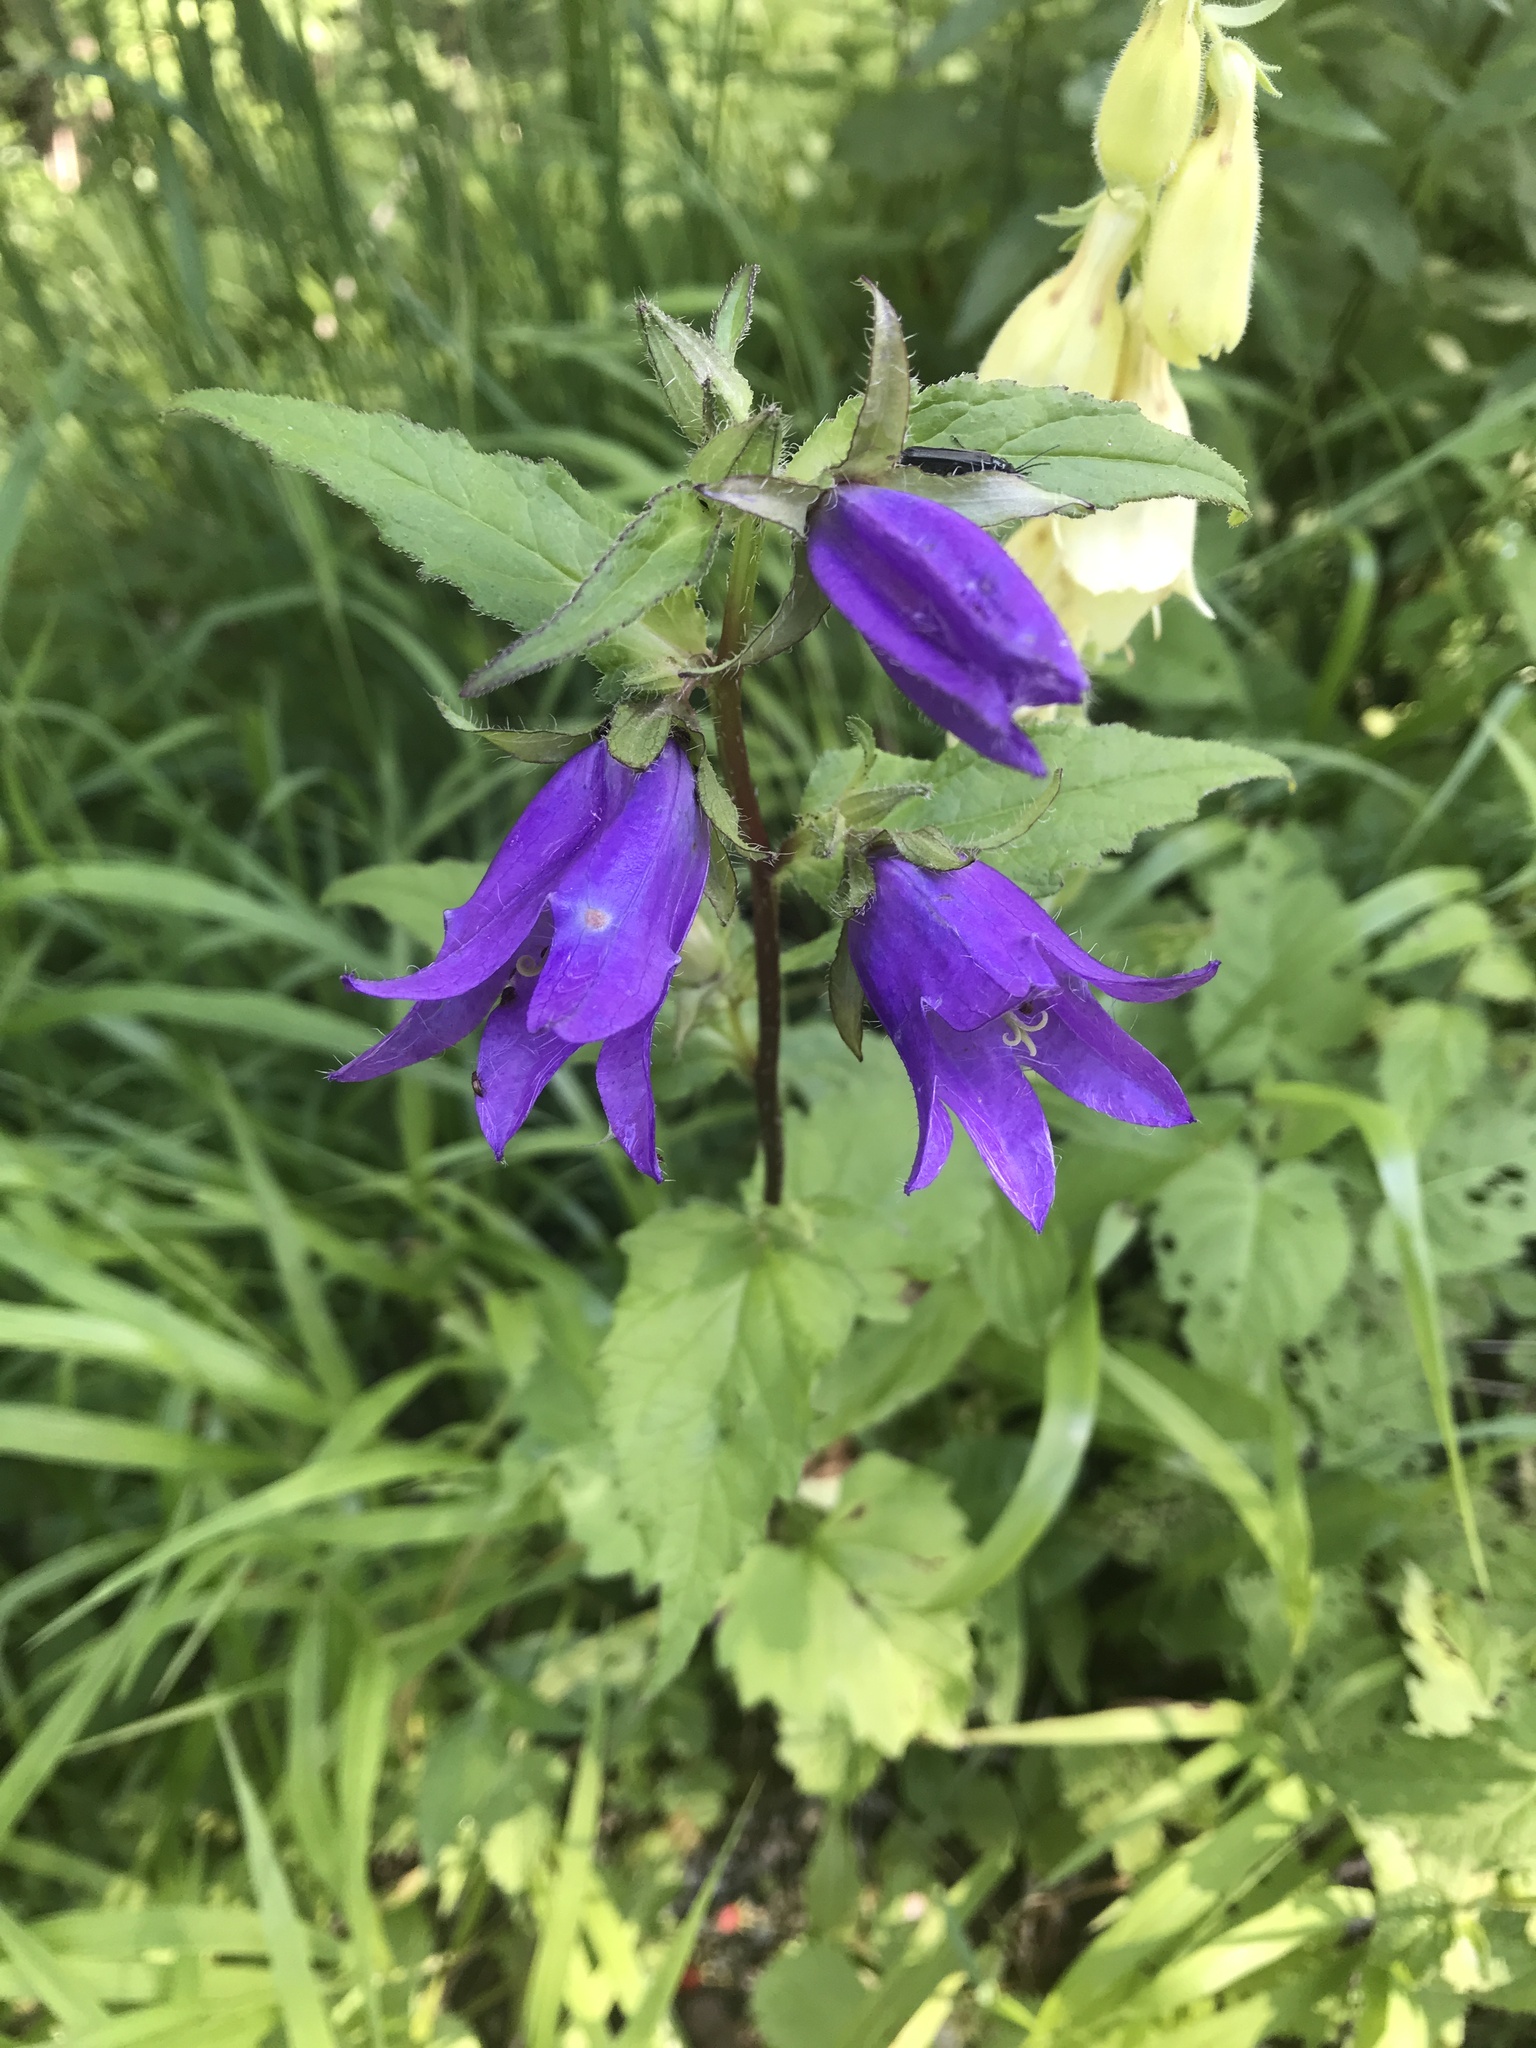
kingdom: Plantae
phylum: Tracheophyta
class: Magnoliopsida
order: Asterales
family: Campanulaceae
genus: Campanula
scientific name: Campanula trachelium
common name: Nettle-leaved bellflower
